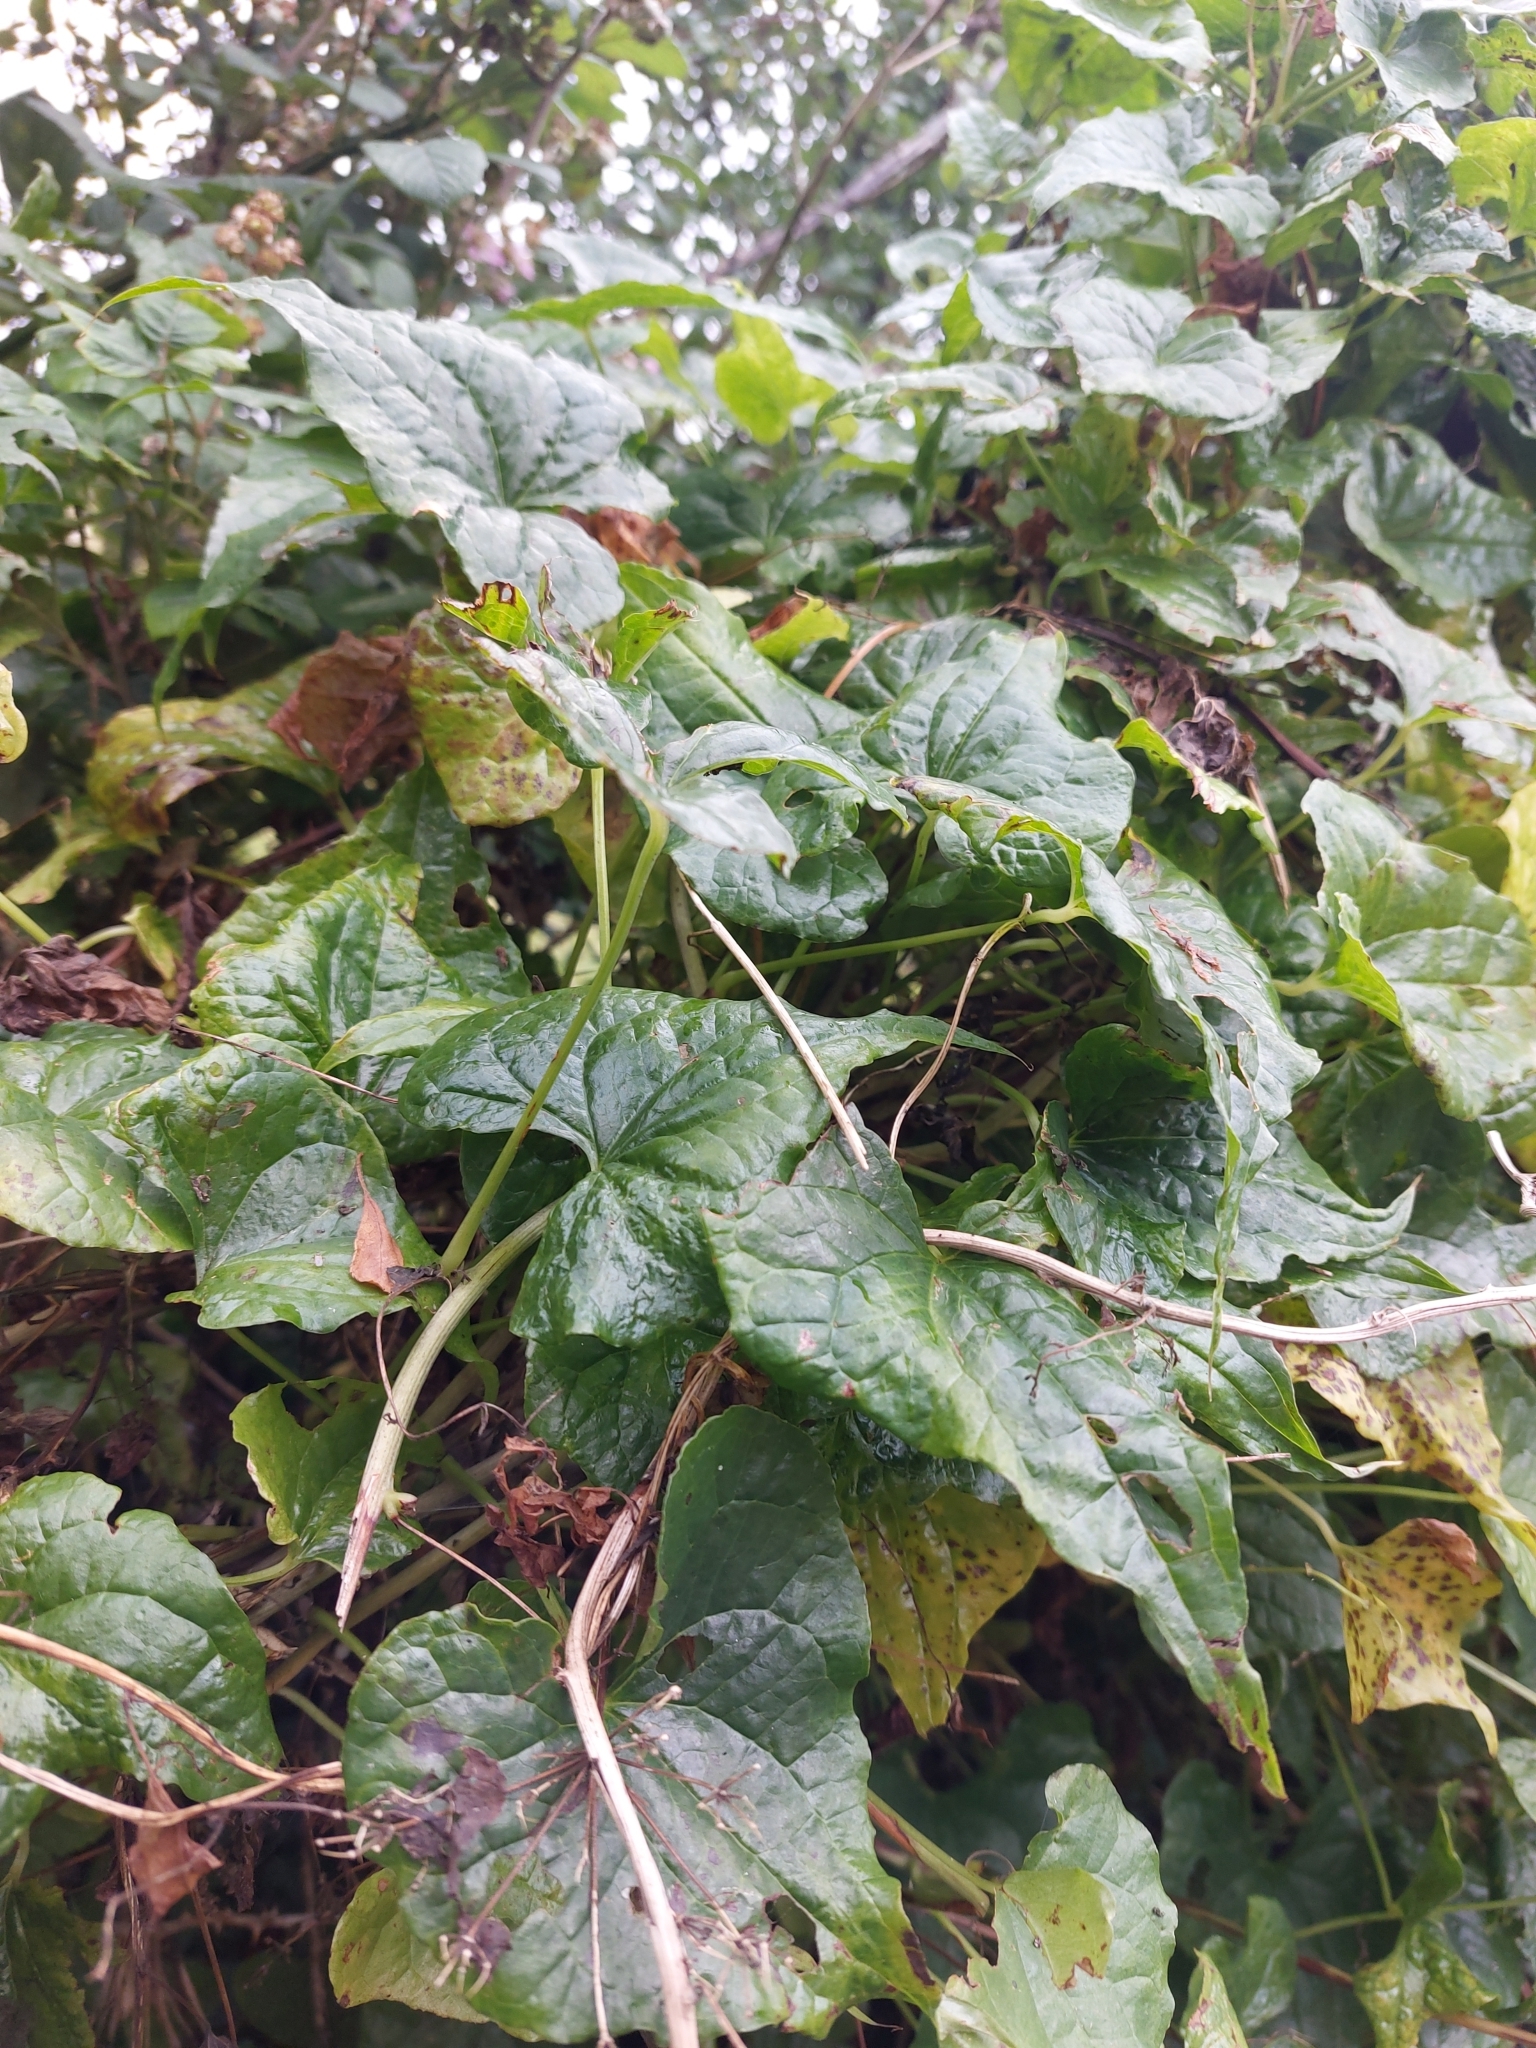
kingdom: Plantae
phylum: Tracheophyta
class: Liliopsida
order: Dioscoreales
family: Dioscoreaceae
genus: Dioscorea
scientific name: Dioscorea communis
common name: Black-bindweed
